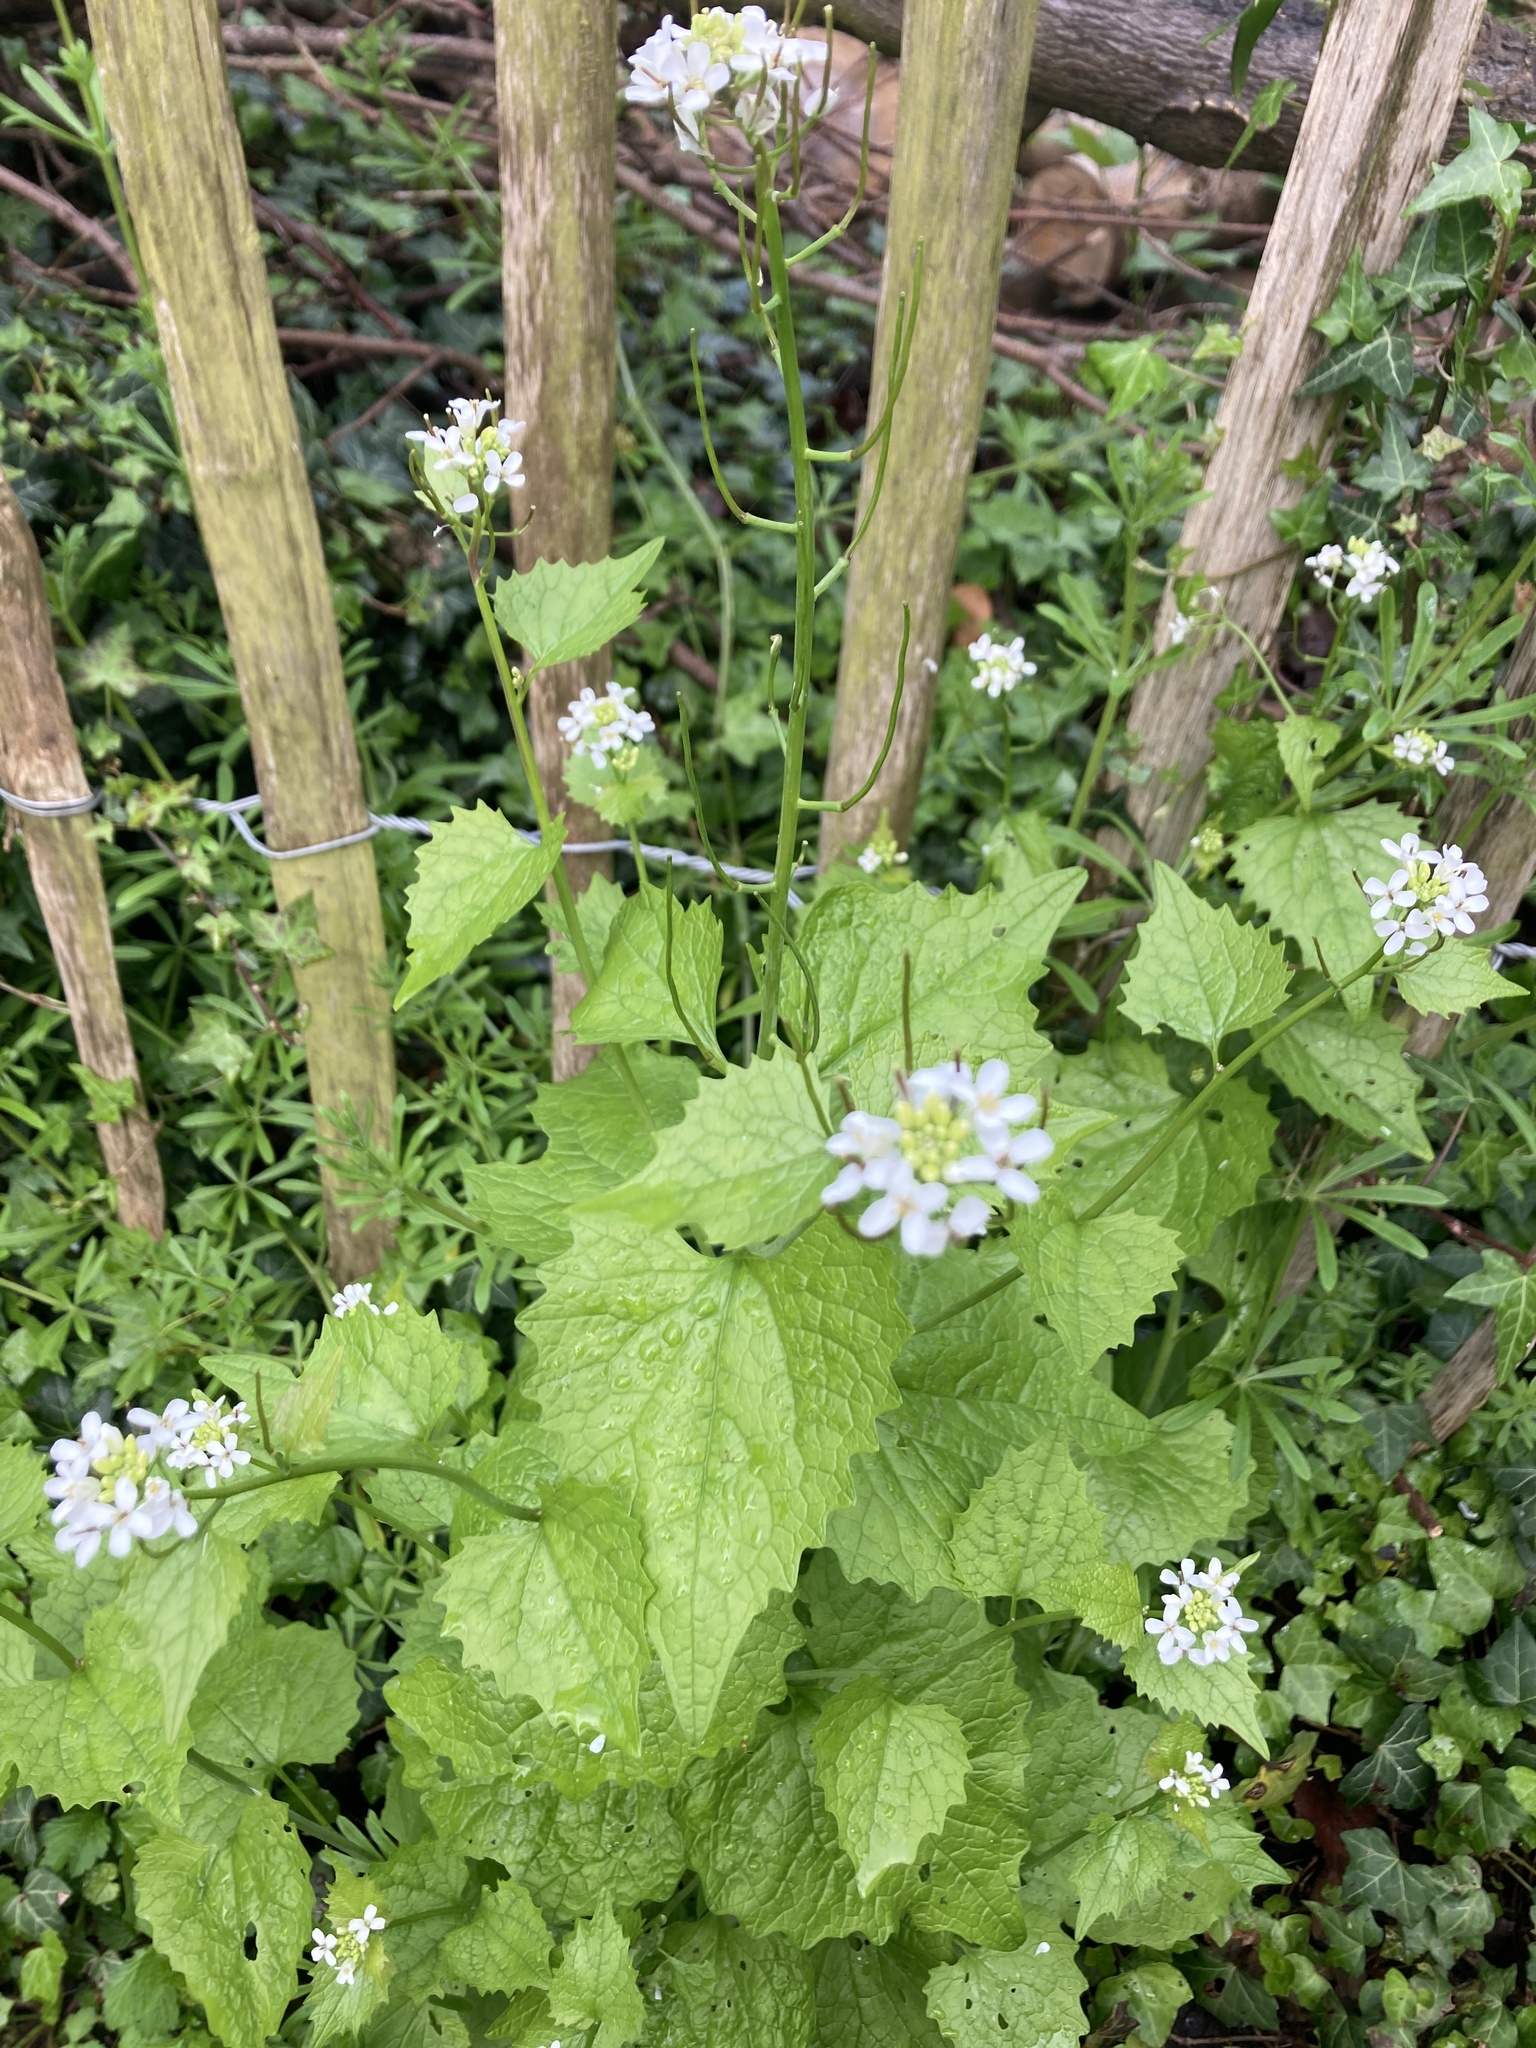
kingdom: Plantae
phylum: Tracheophyta
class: Magnoliopsida
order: Brassicales
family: Brassicaceae
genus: Alliaria
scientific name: Alliaria petiolata
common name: Garlic mustard
